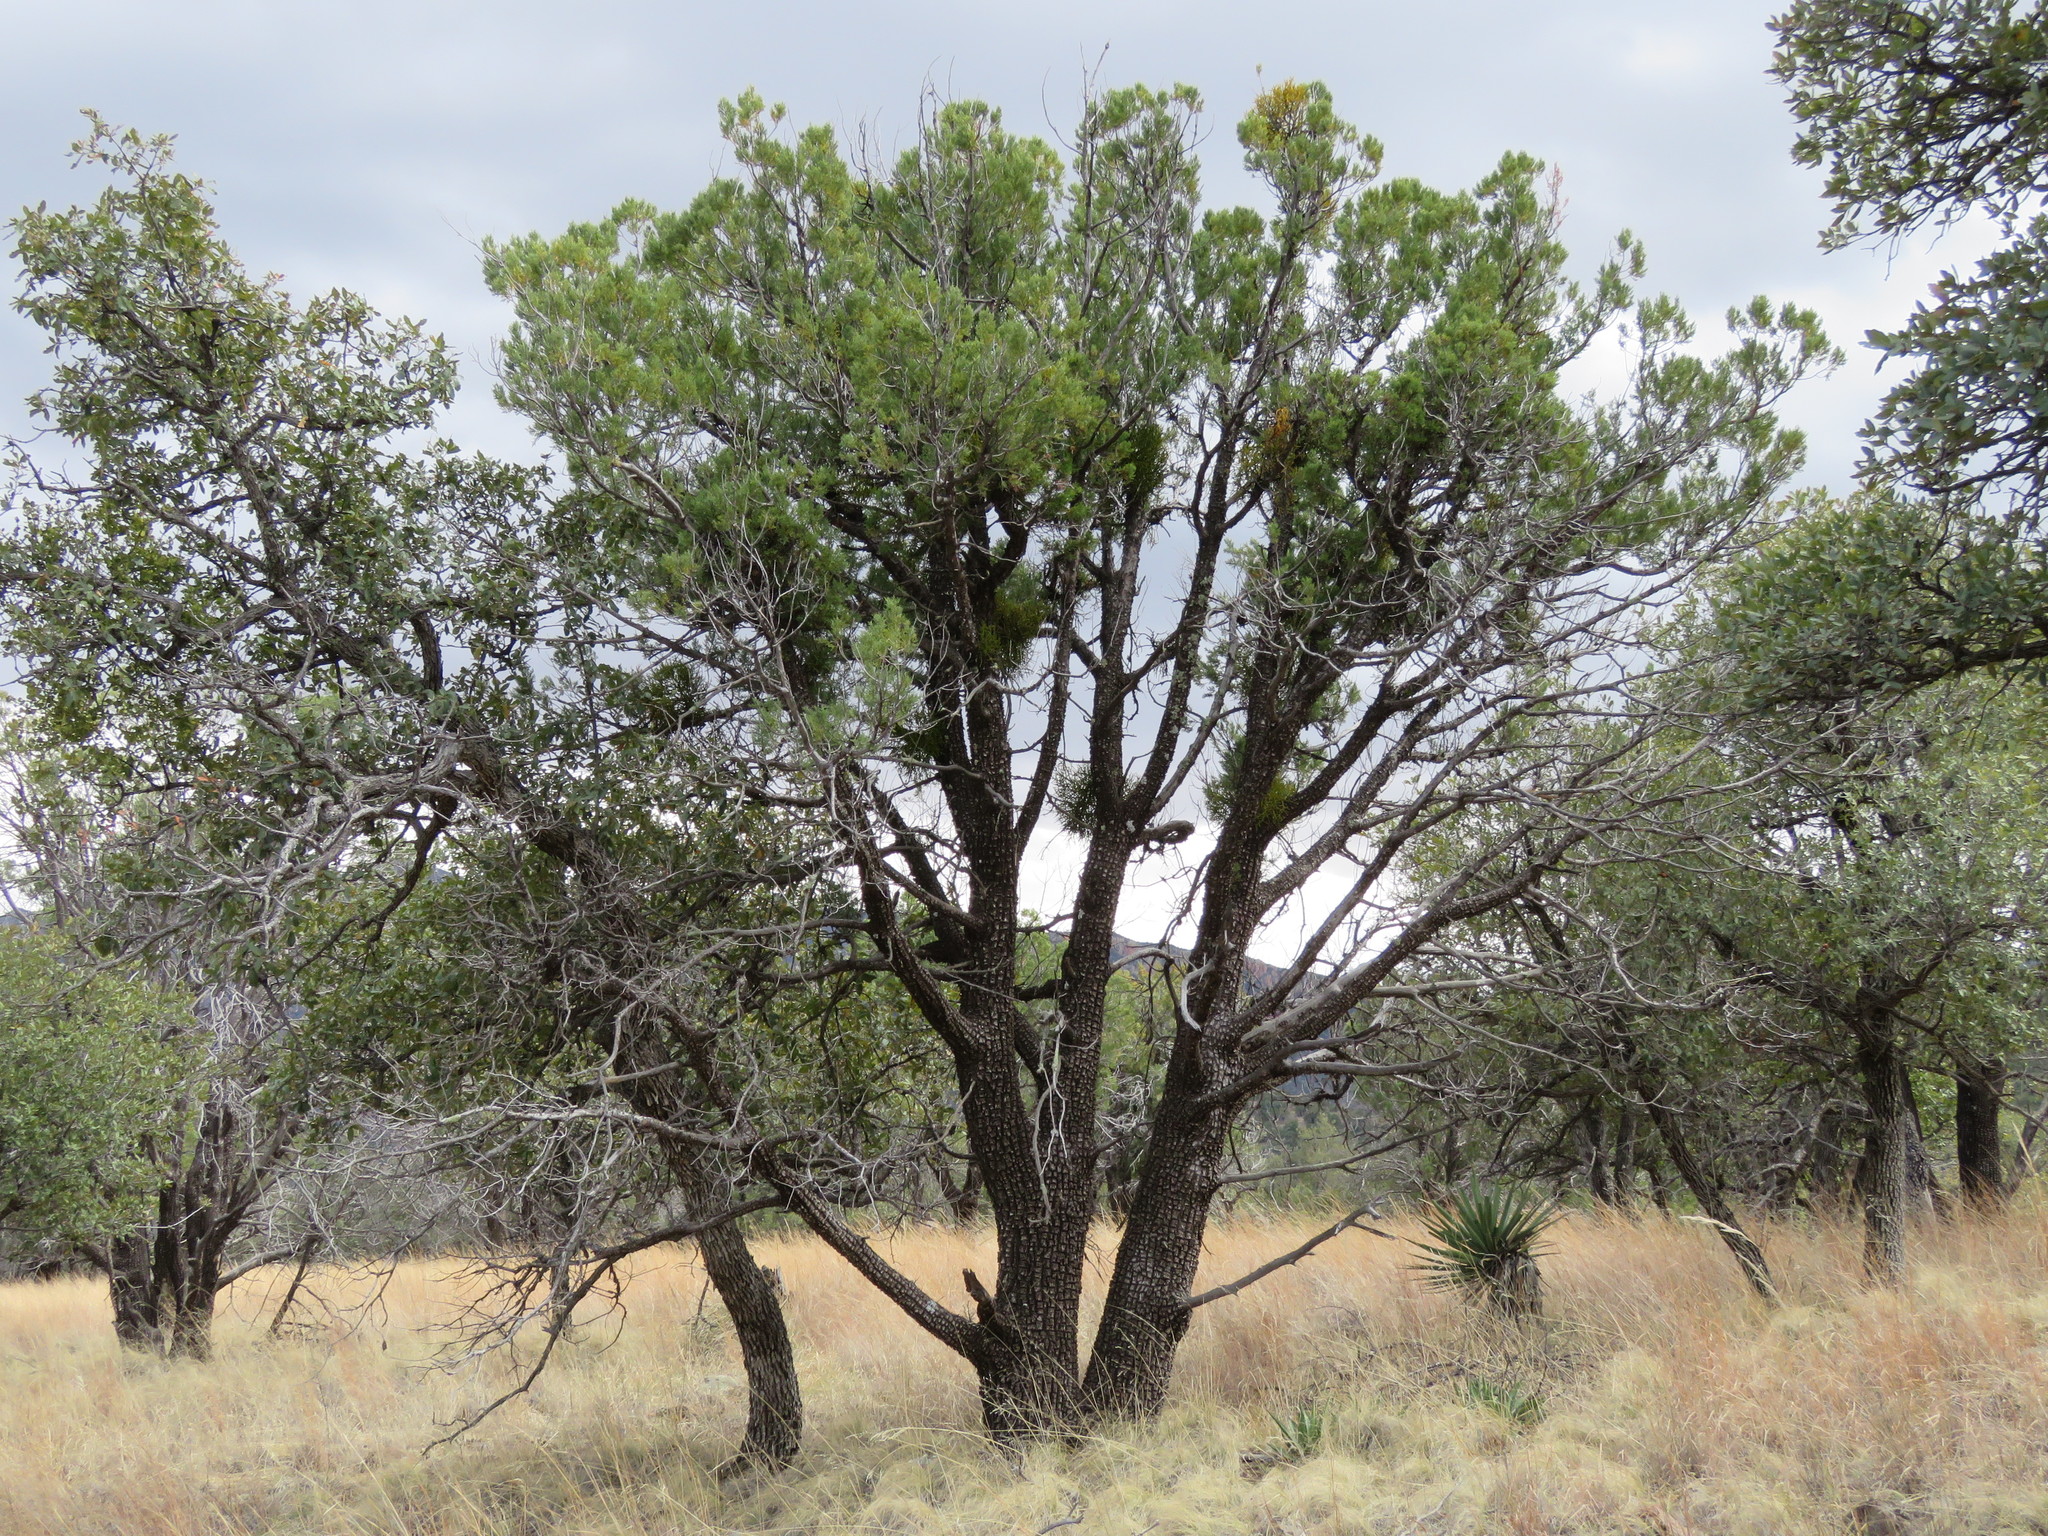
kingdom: Plantae
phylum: Tracheophyta
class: Pinopsida
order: Pinales
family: Cupressaceae
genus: Juniperus
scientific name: Juniperus deppeana
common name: Alligator juniper
